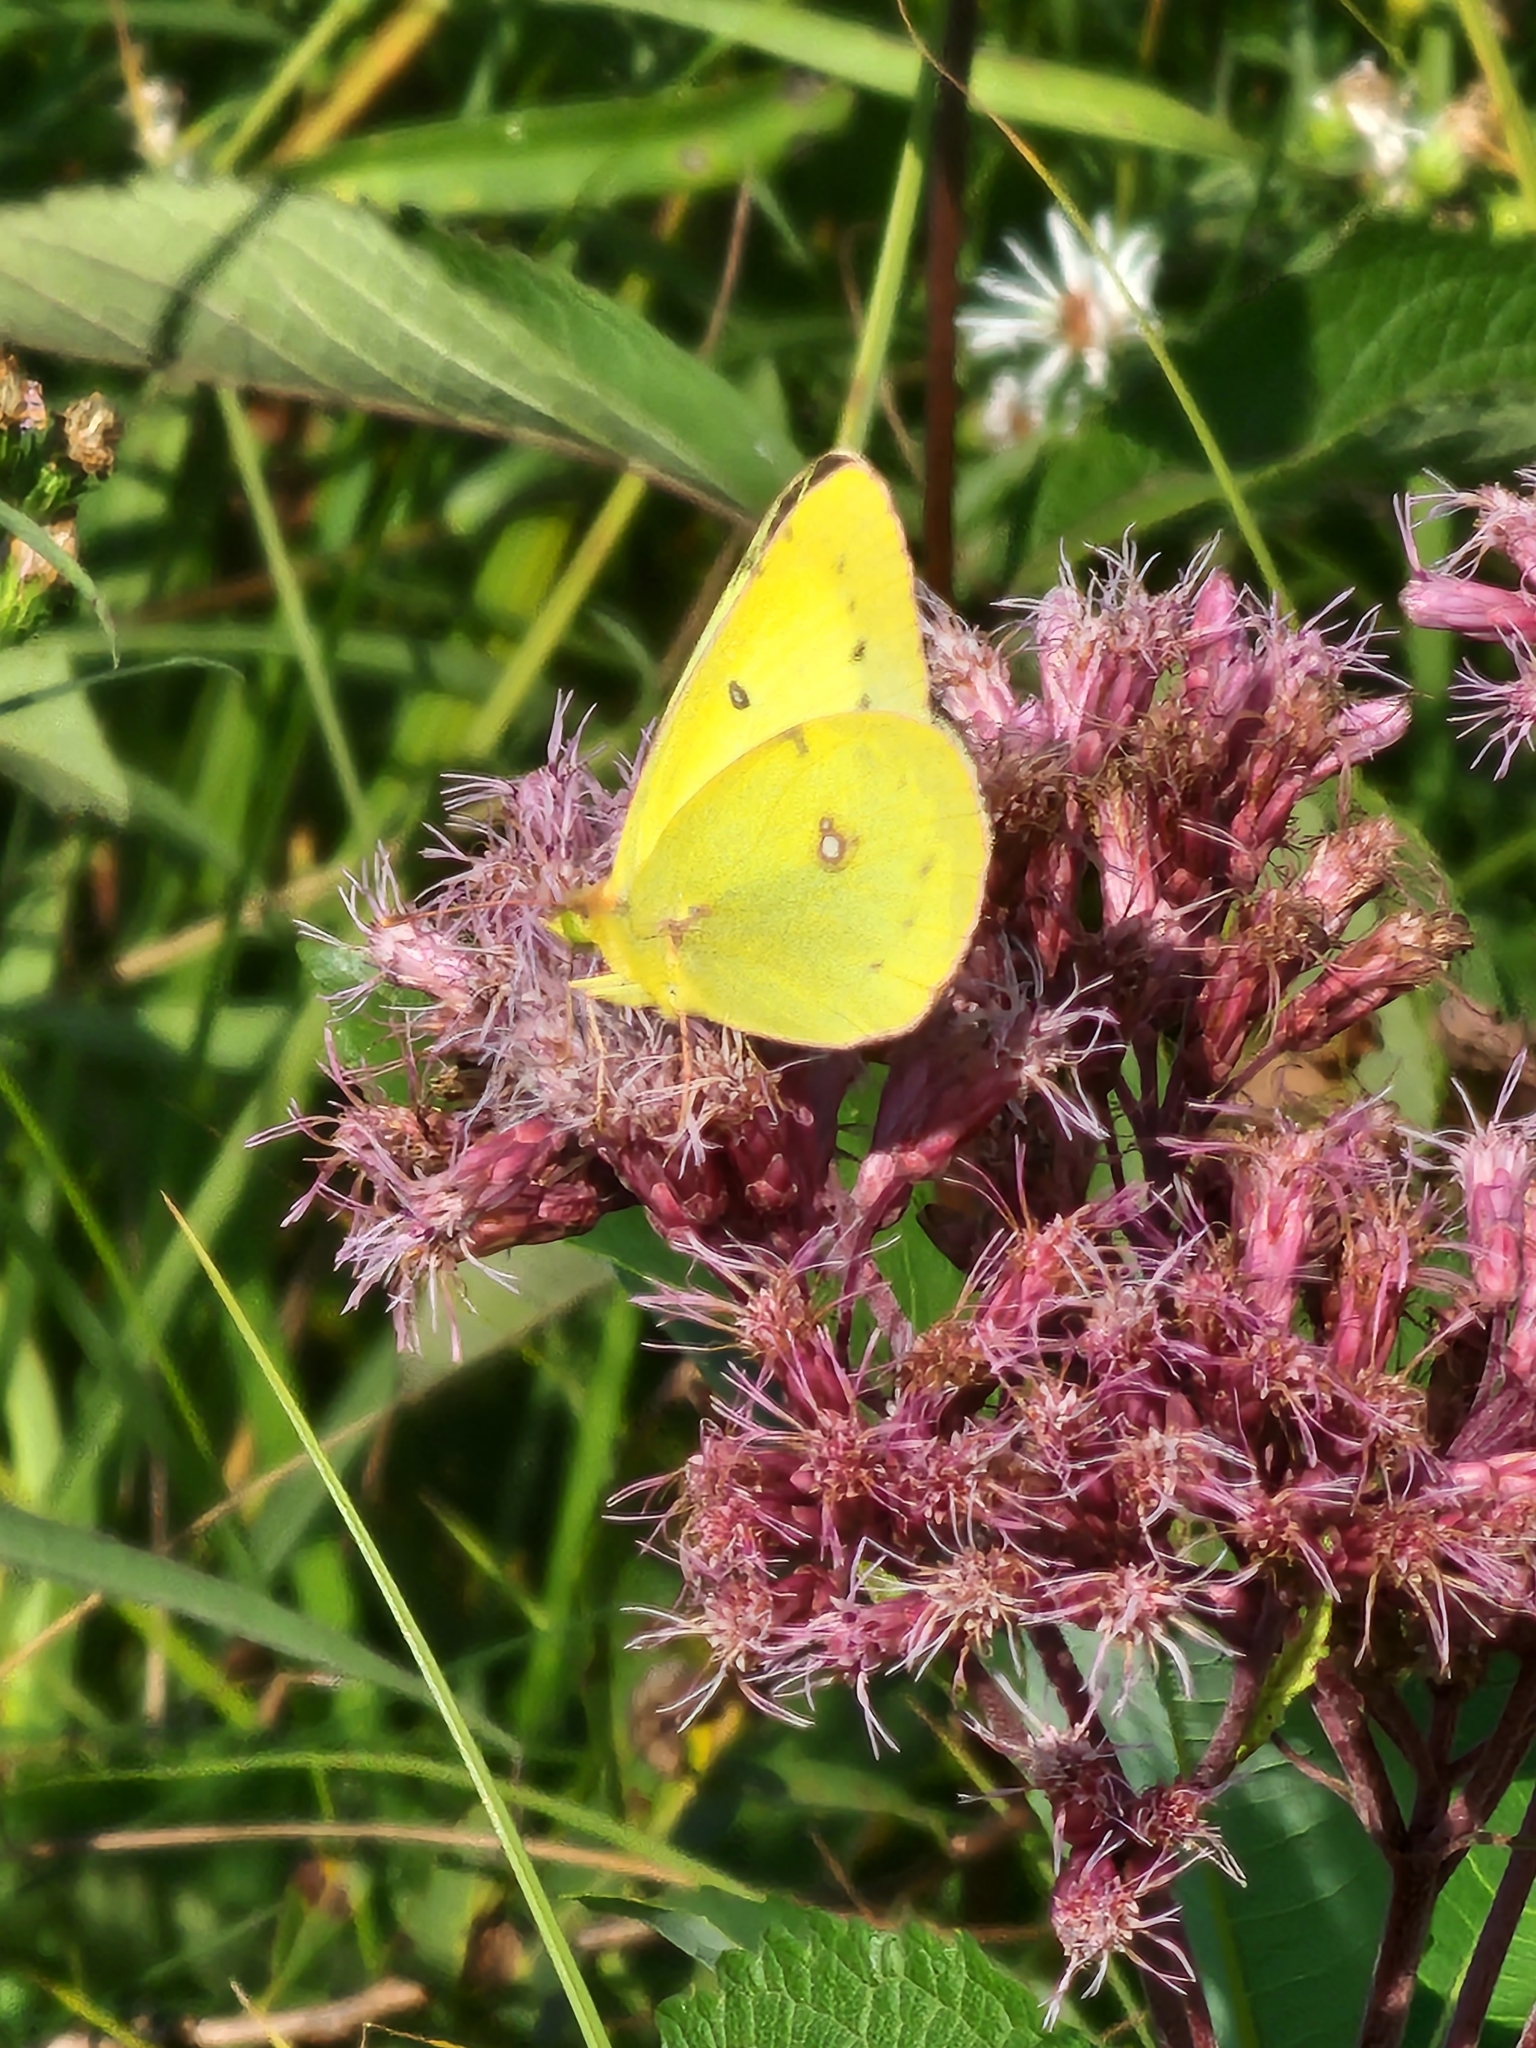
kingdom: Animalia
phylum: Arthropoda
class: Insecta
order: Lepidoptera
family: Pieridae
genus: Colias
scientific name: Colias philodice
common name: Clouded sulphur
